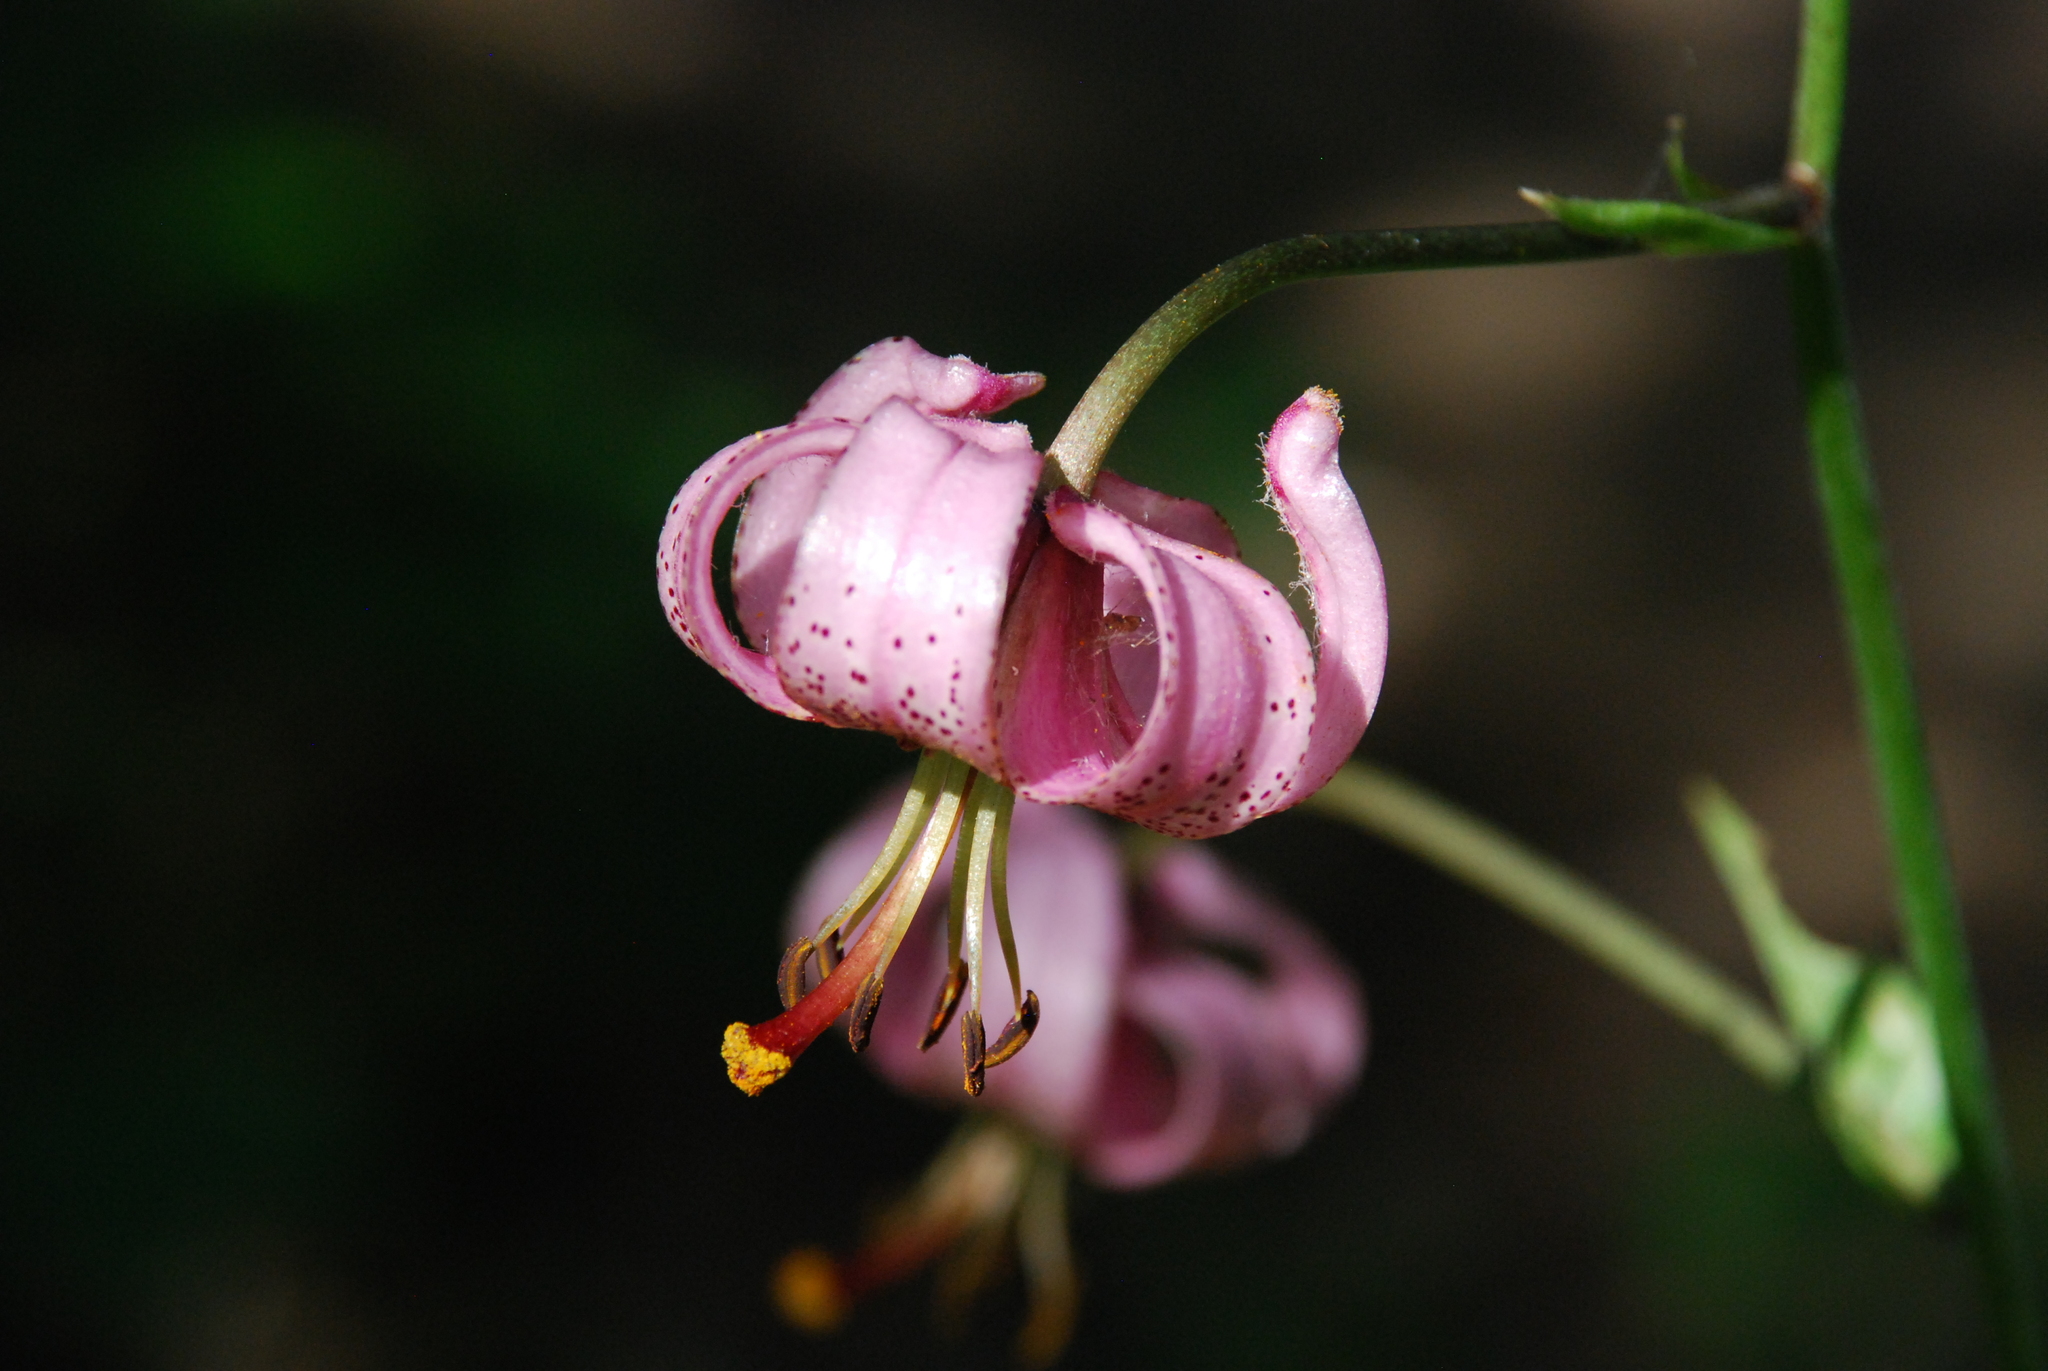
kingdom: Plantae
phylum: Tracheophyta
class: Liliopsida
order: Liliales
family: Liliaceae
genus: Lilium
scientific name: Lilium martagon
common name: Martagon lily
